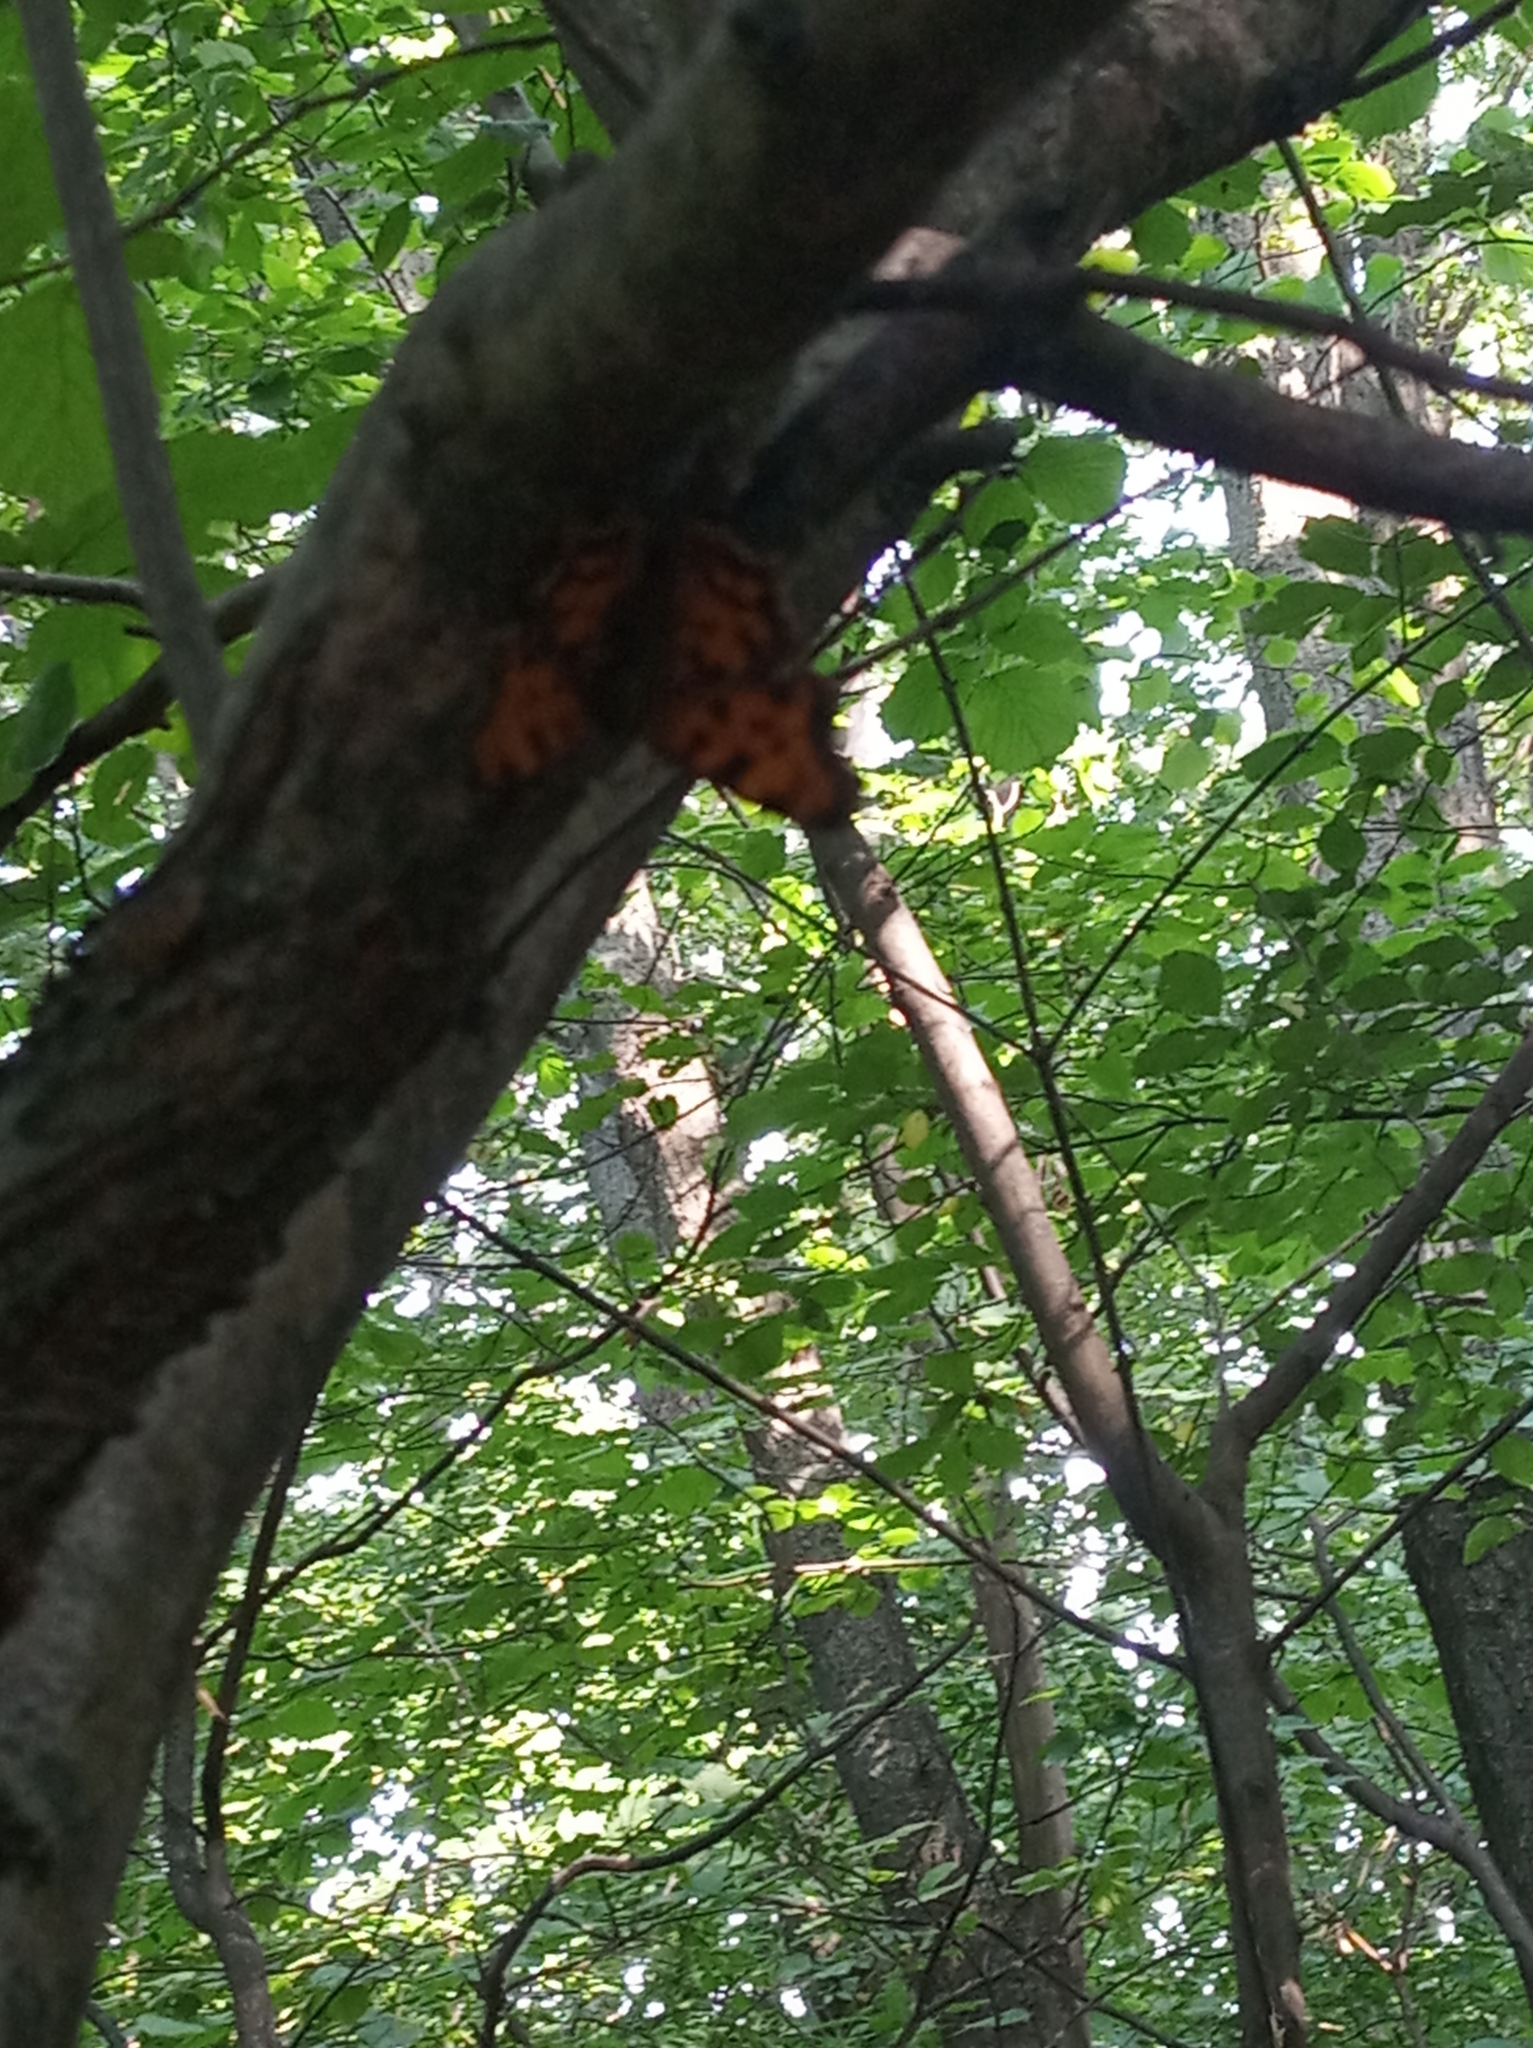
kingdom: Animalia
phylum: Arthropoda
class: Insecta
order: Lepidoptera
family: Nymphalidae
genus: Polygonia
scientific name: Polygonia c-album
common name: Comma
